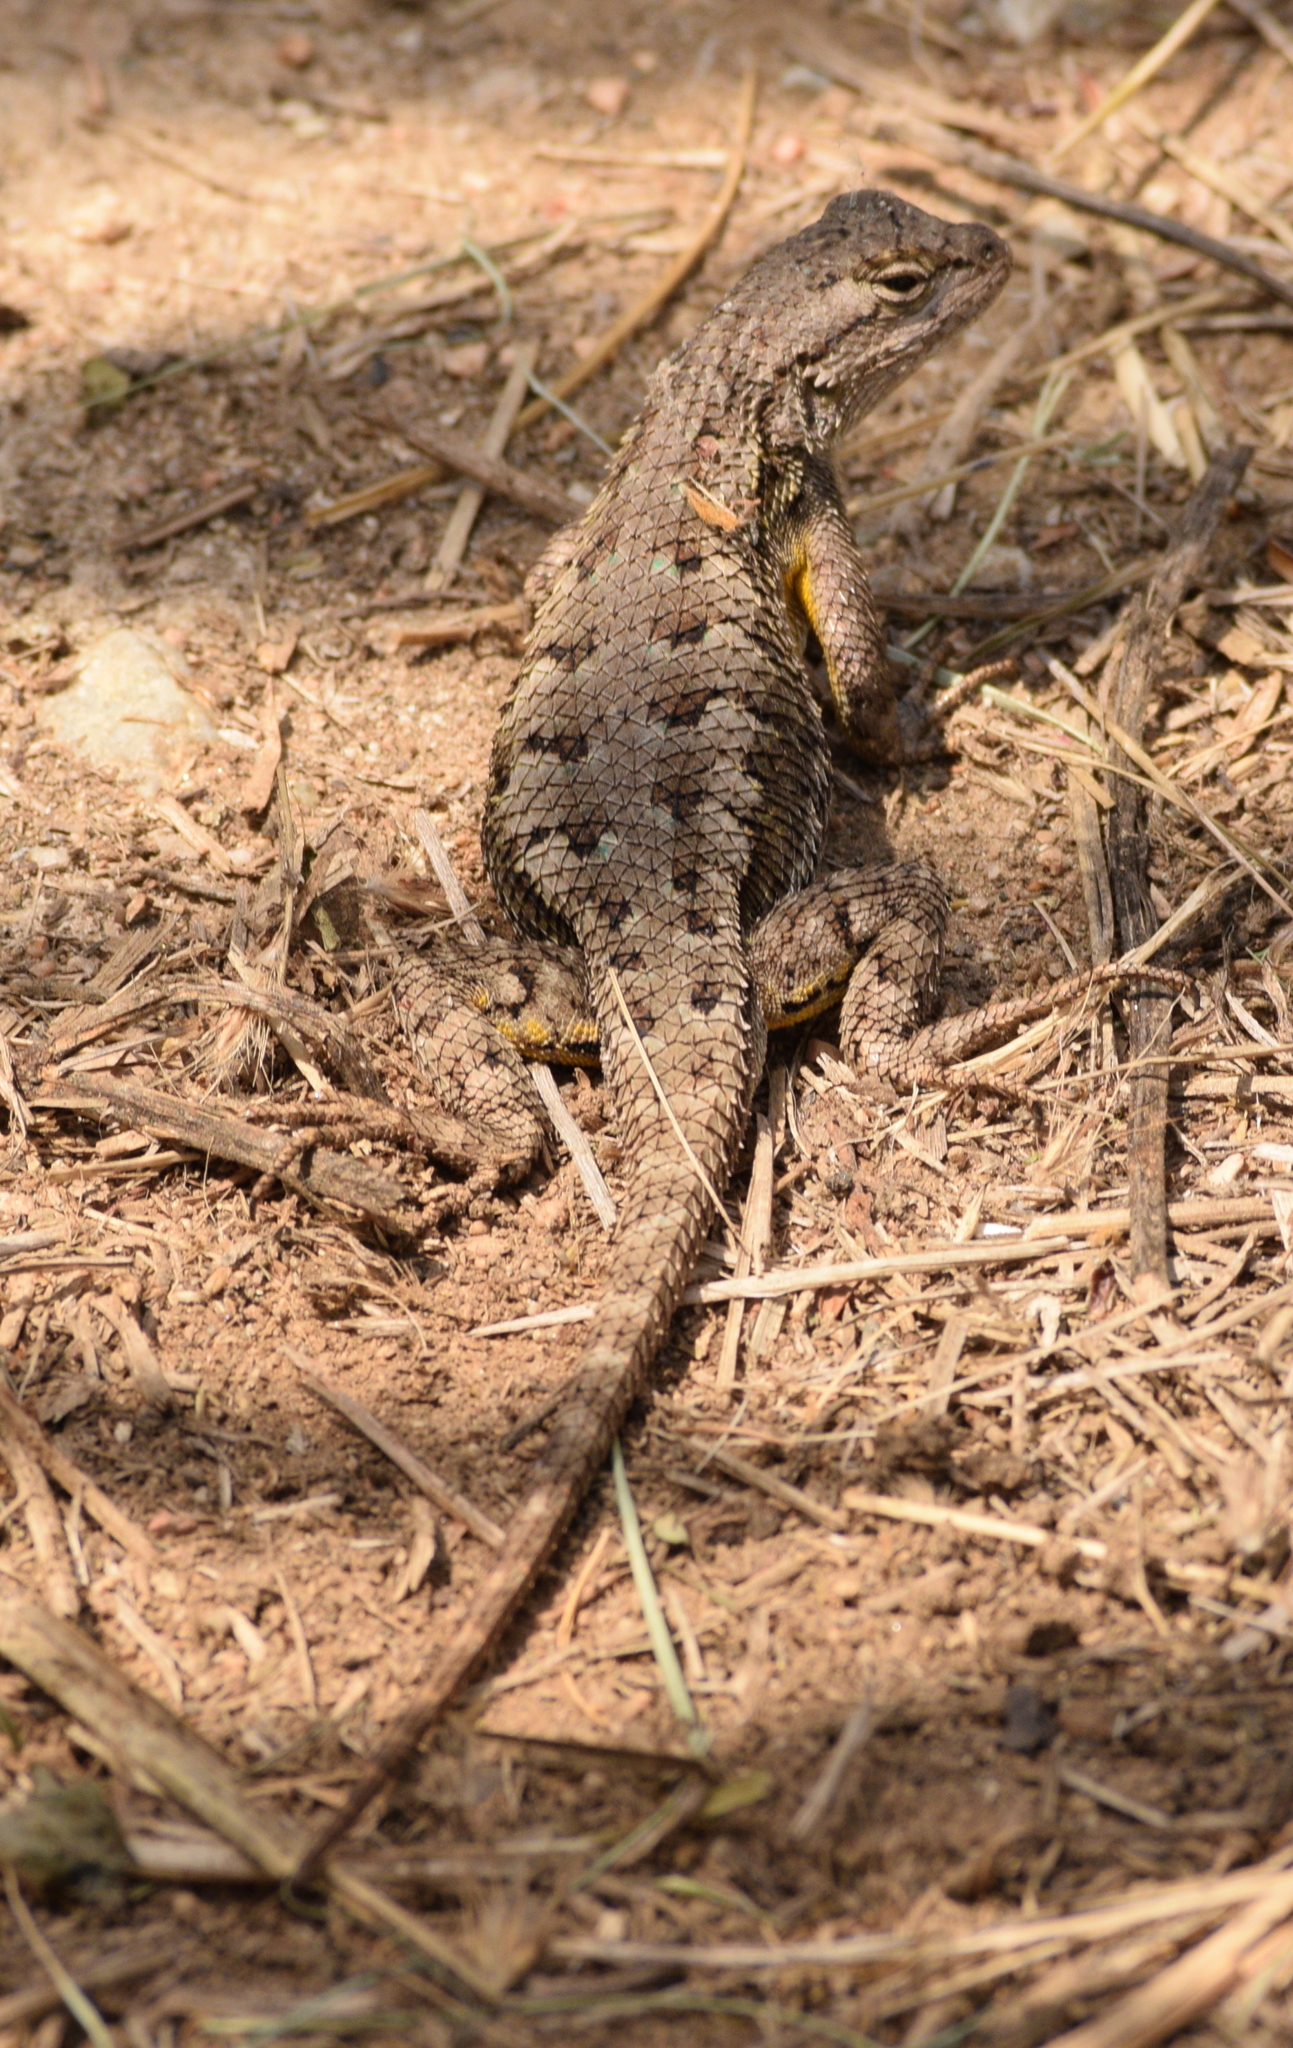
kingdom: Animalia
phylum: Chordata
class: Squamata
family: Phrynosomatidae
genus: Sceloporus
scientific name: Sceloporus occidentalis
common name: Western fence lizard
